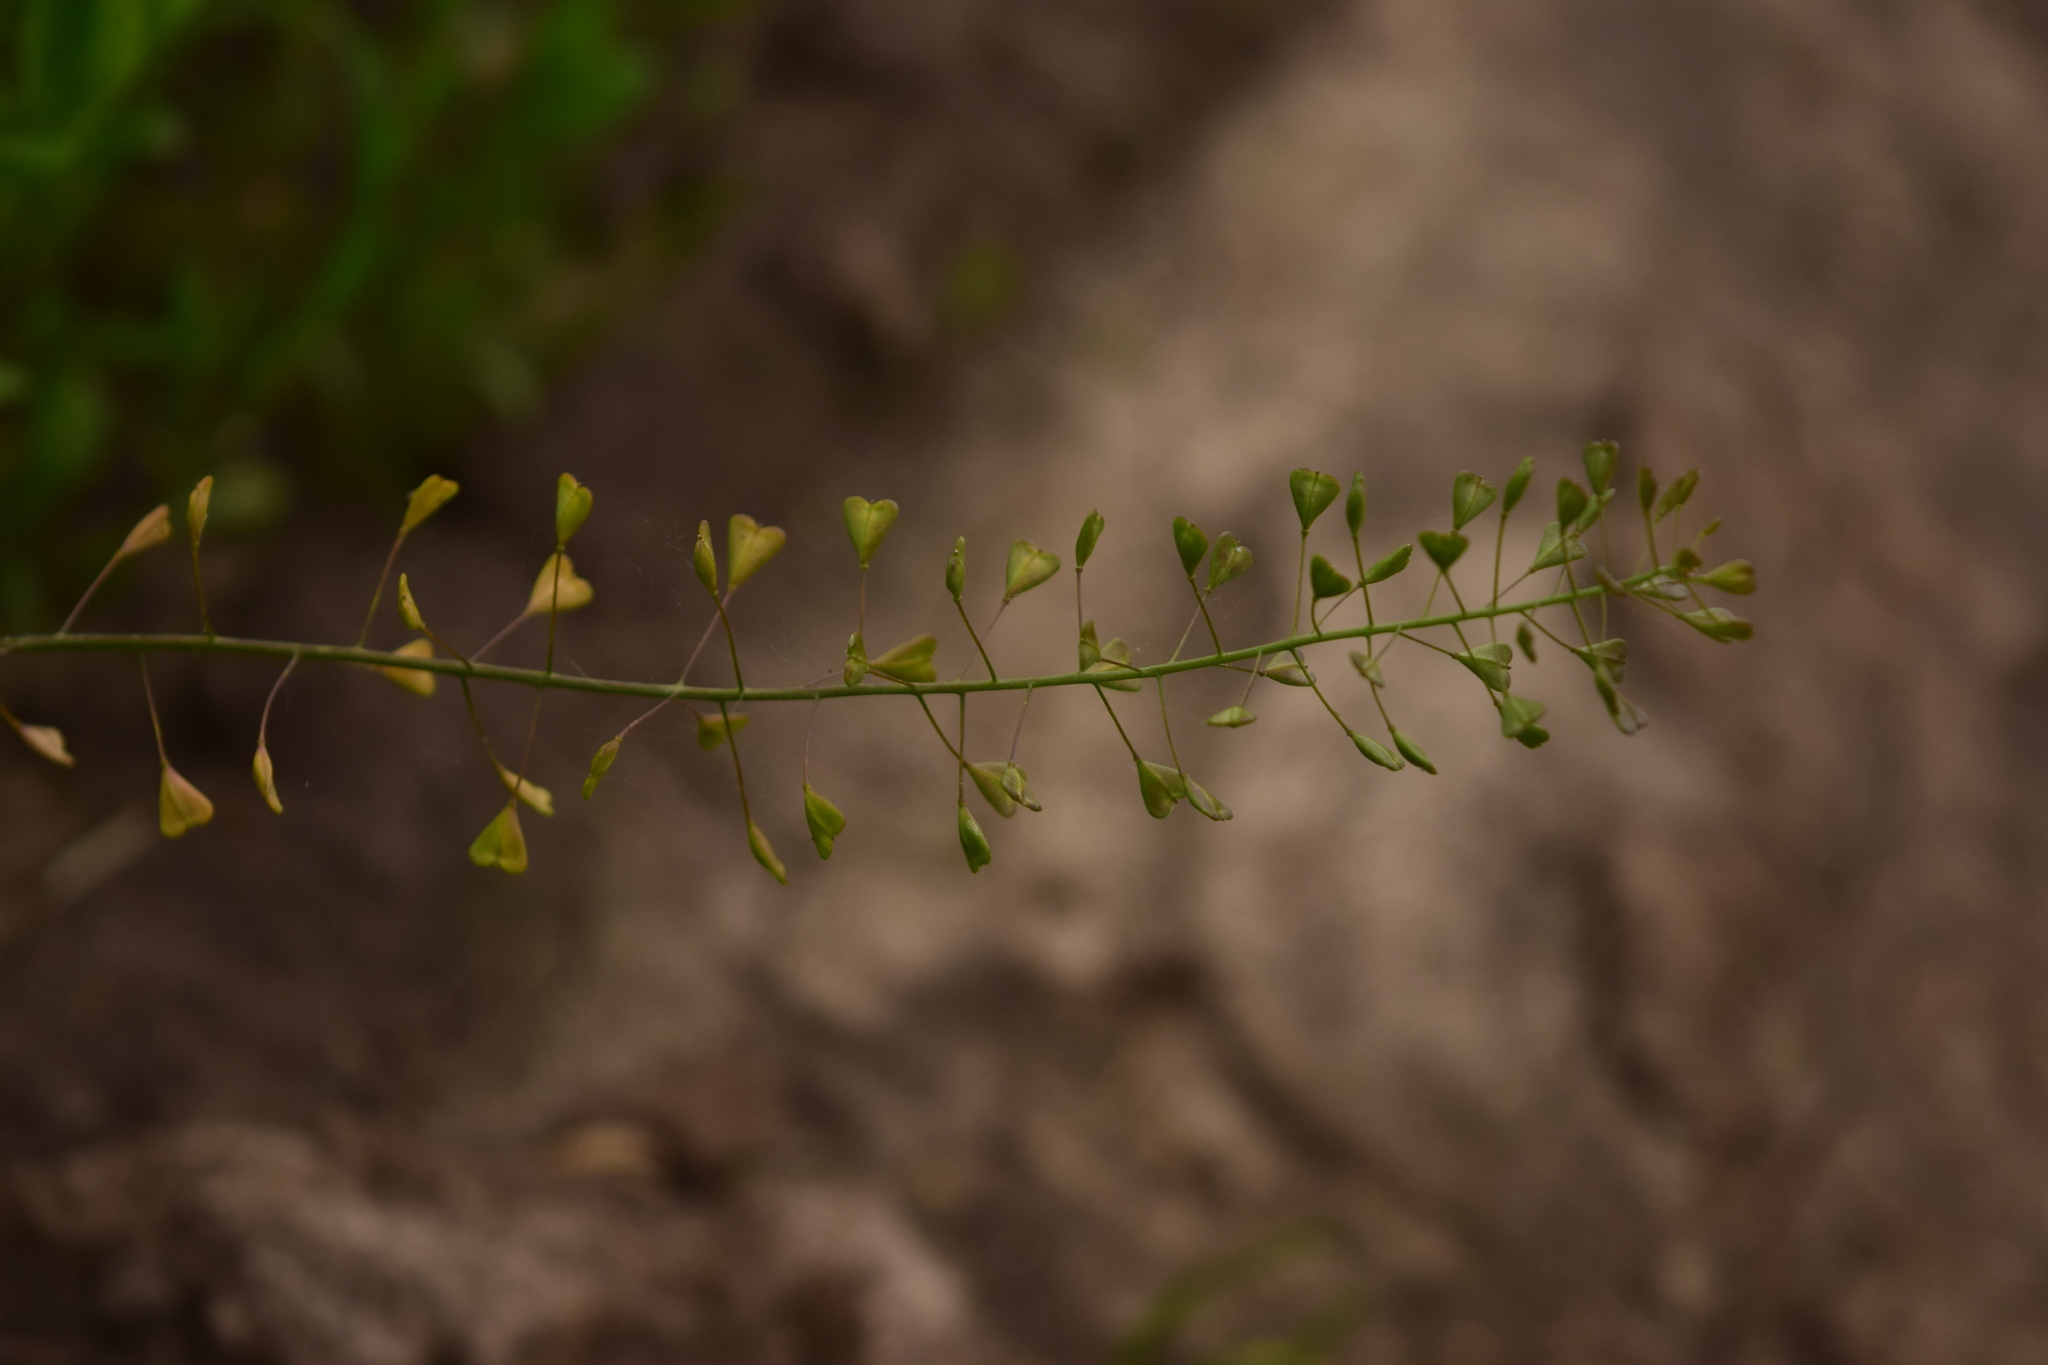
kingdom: Plantae
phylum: Tracheophyta
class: Magnoliopsida
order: Brassicales
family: Brassicaceae
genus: Capsella
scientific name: Capsella bursa-pastoris
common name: Shepherd's purse
